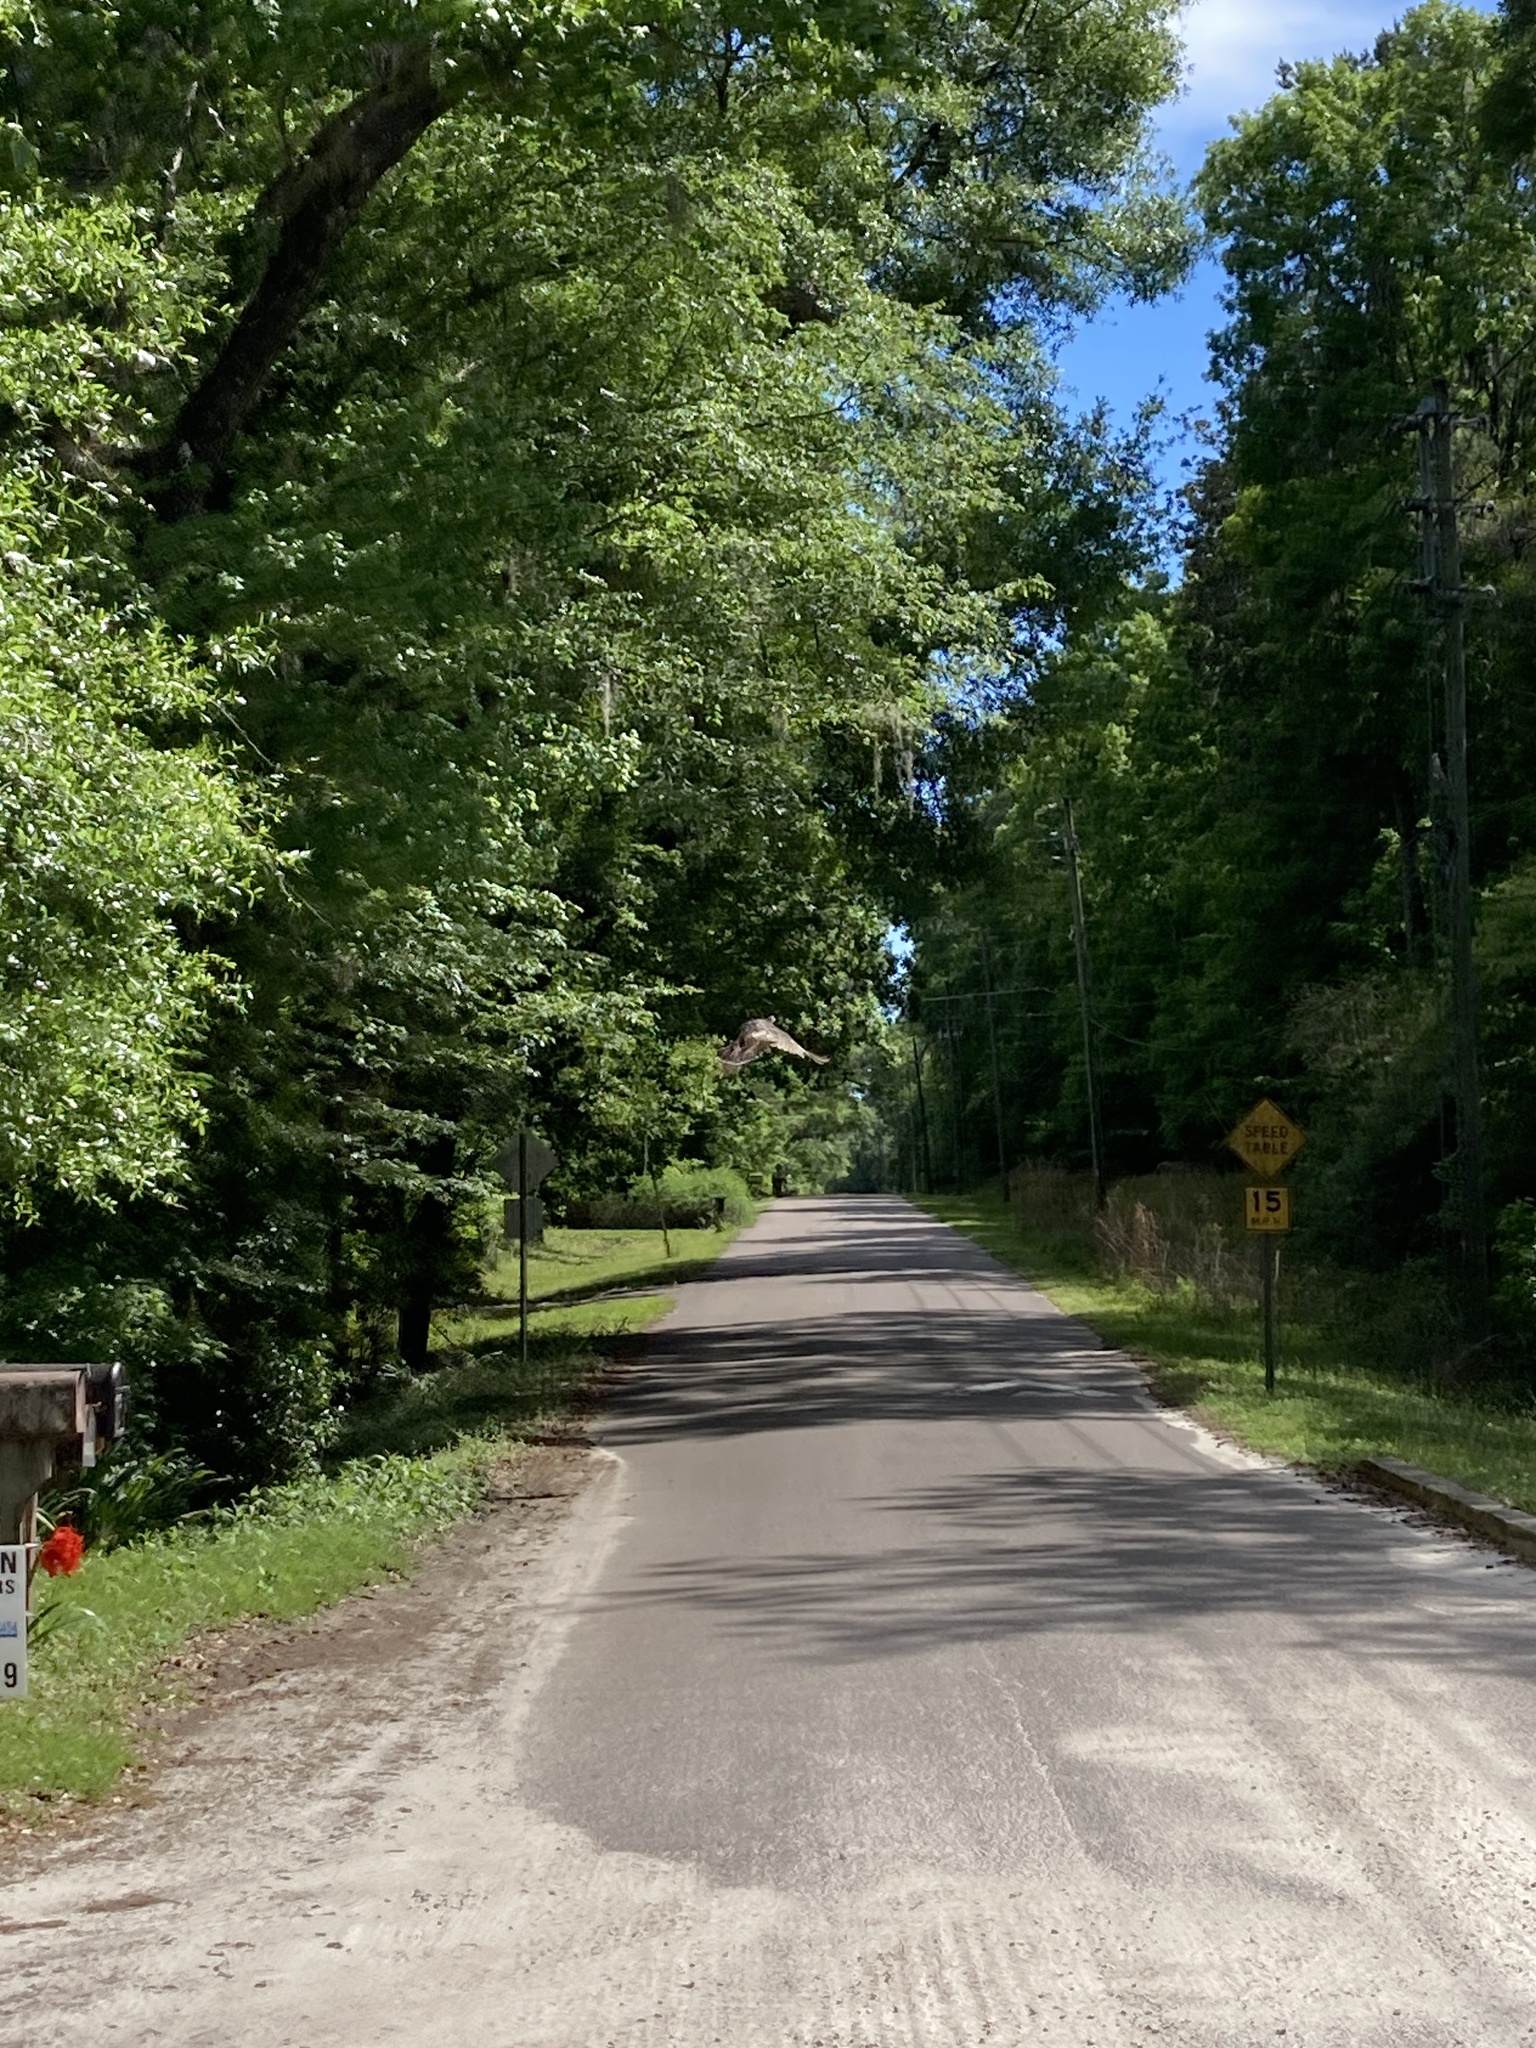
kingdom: Animalia
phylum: Chordata
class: Aves
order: Galliformes
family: Phasianidae
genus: Meleagris
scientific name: Meleagris gallopavo
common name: Wild turkey
